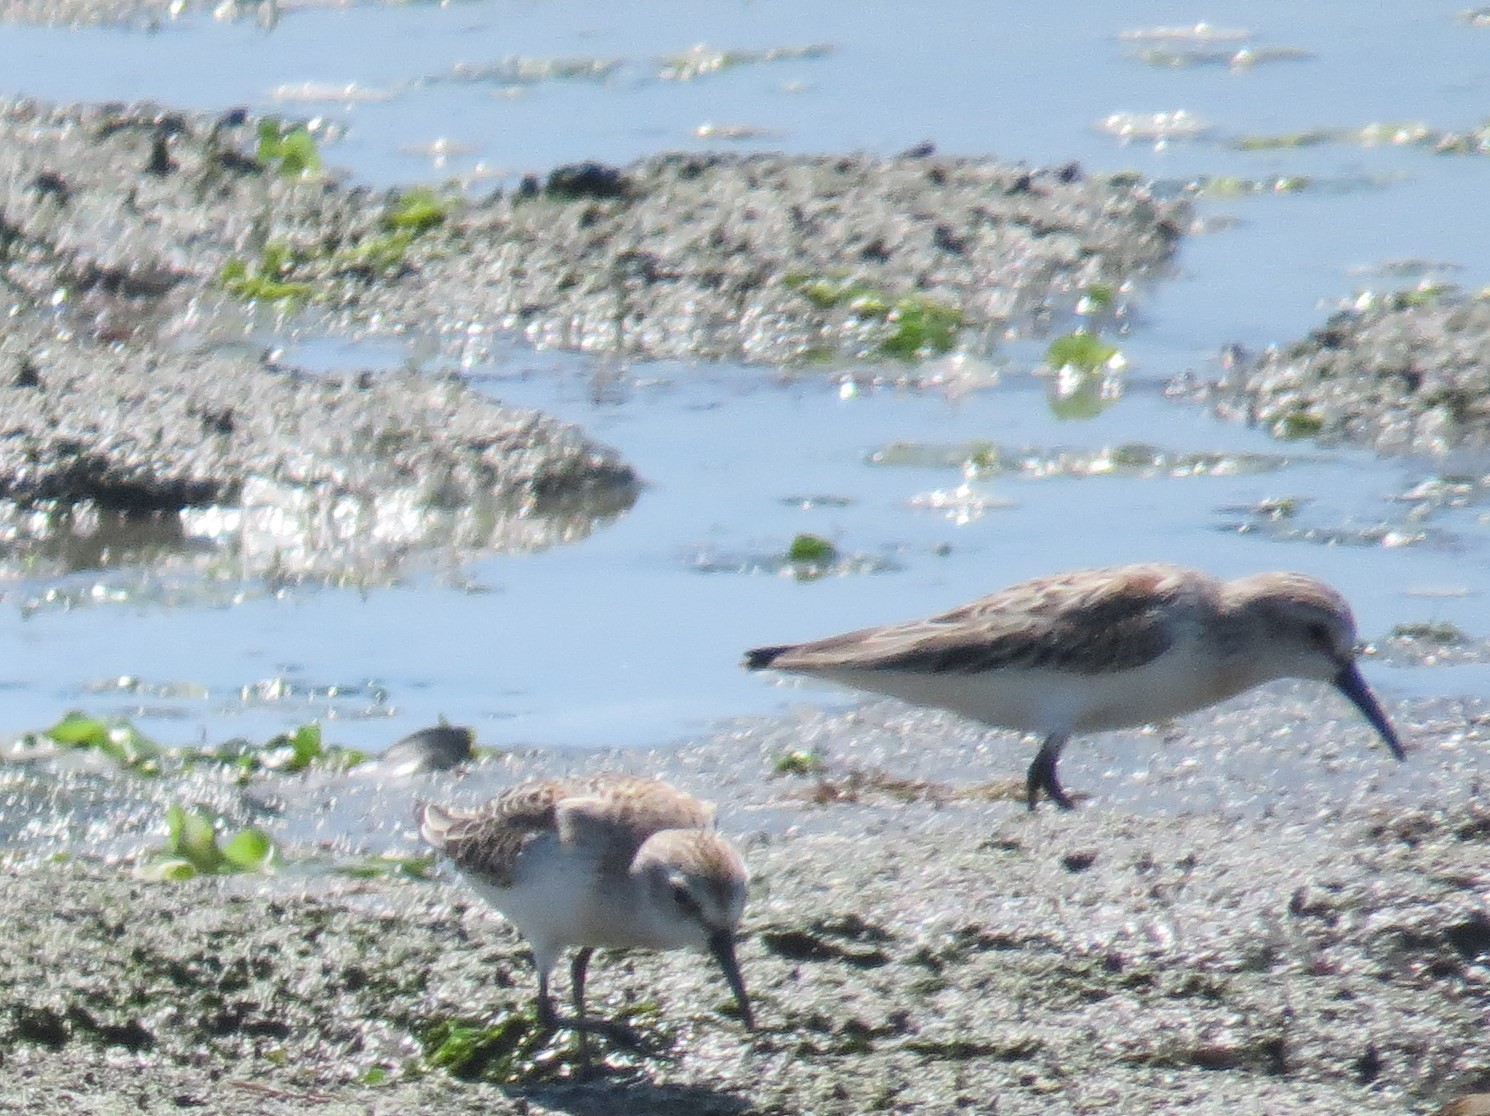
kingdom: Animalia
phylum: Chordata
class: Aves
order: Charadriiformes
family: Scolopacidae
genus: Calidris
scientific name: Calidris mauri
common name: Western sandpiper
